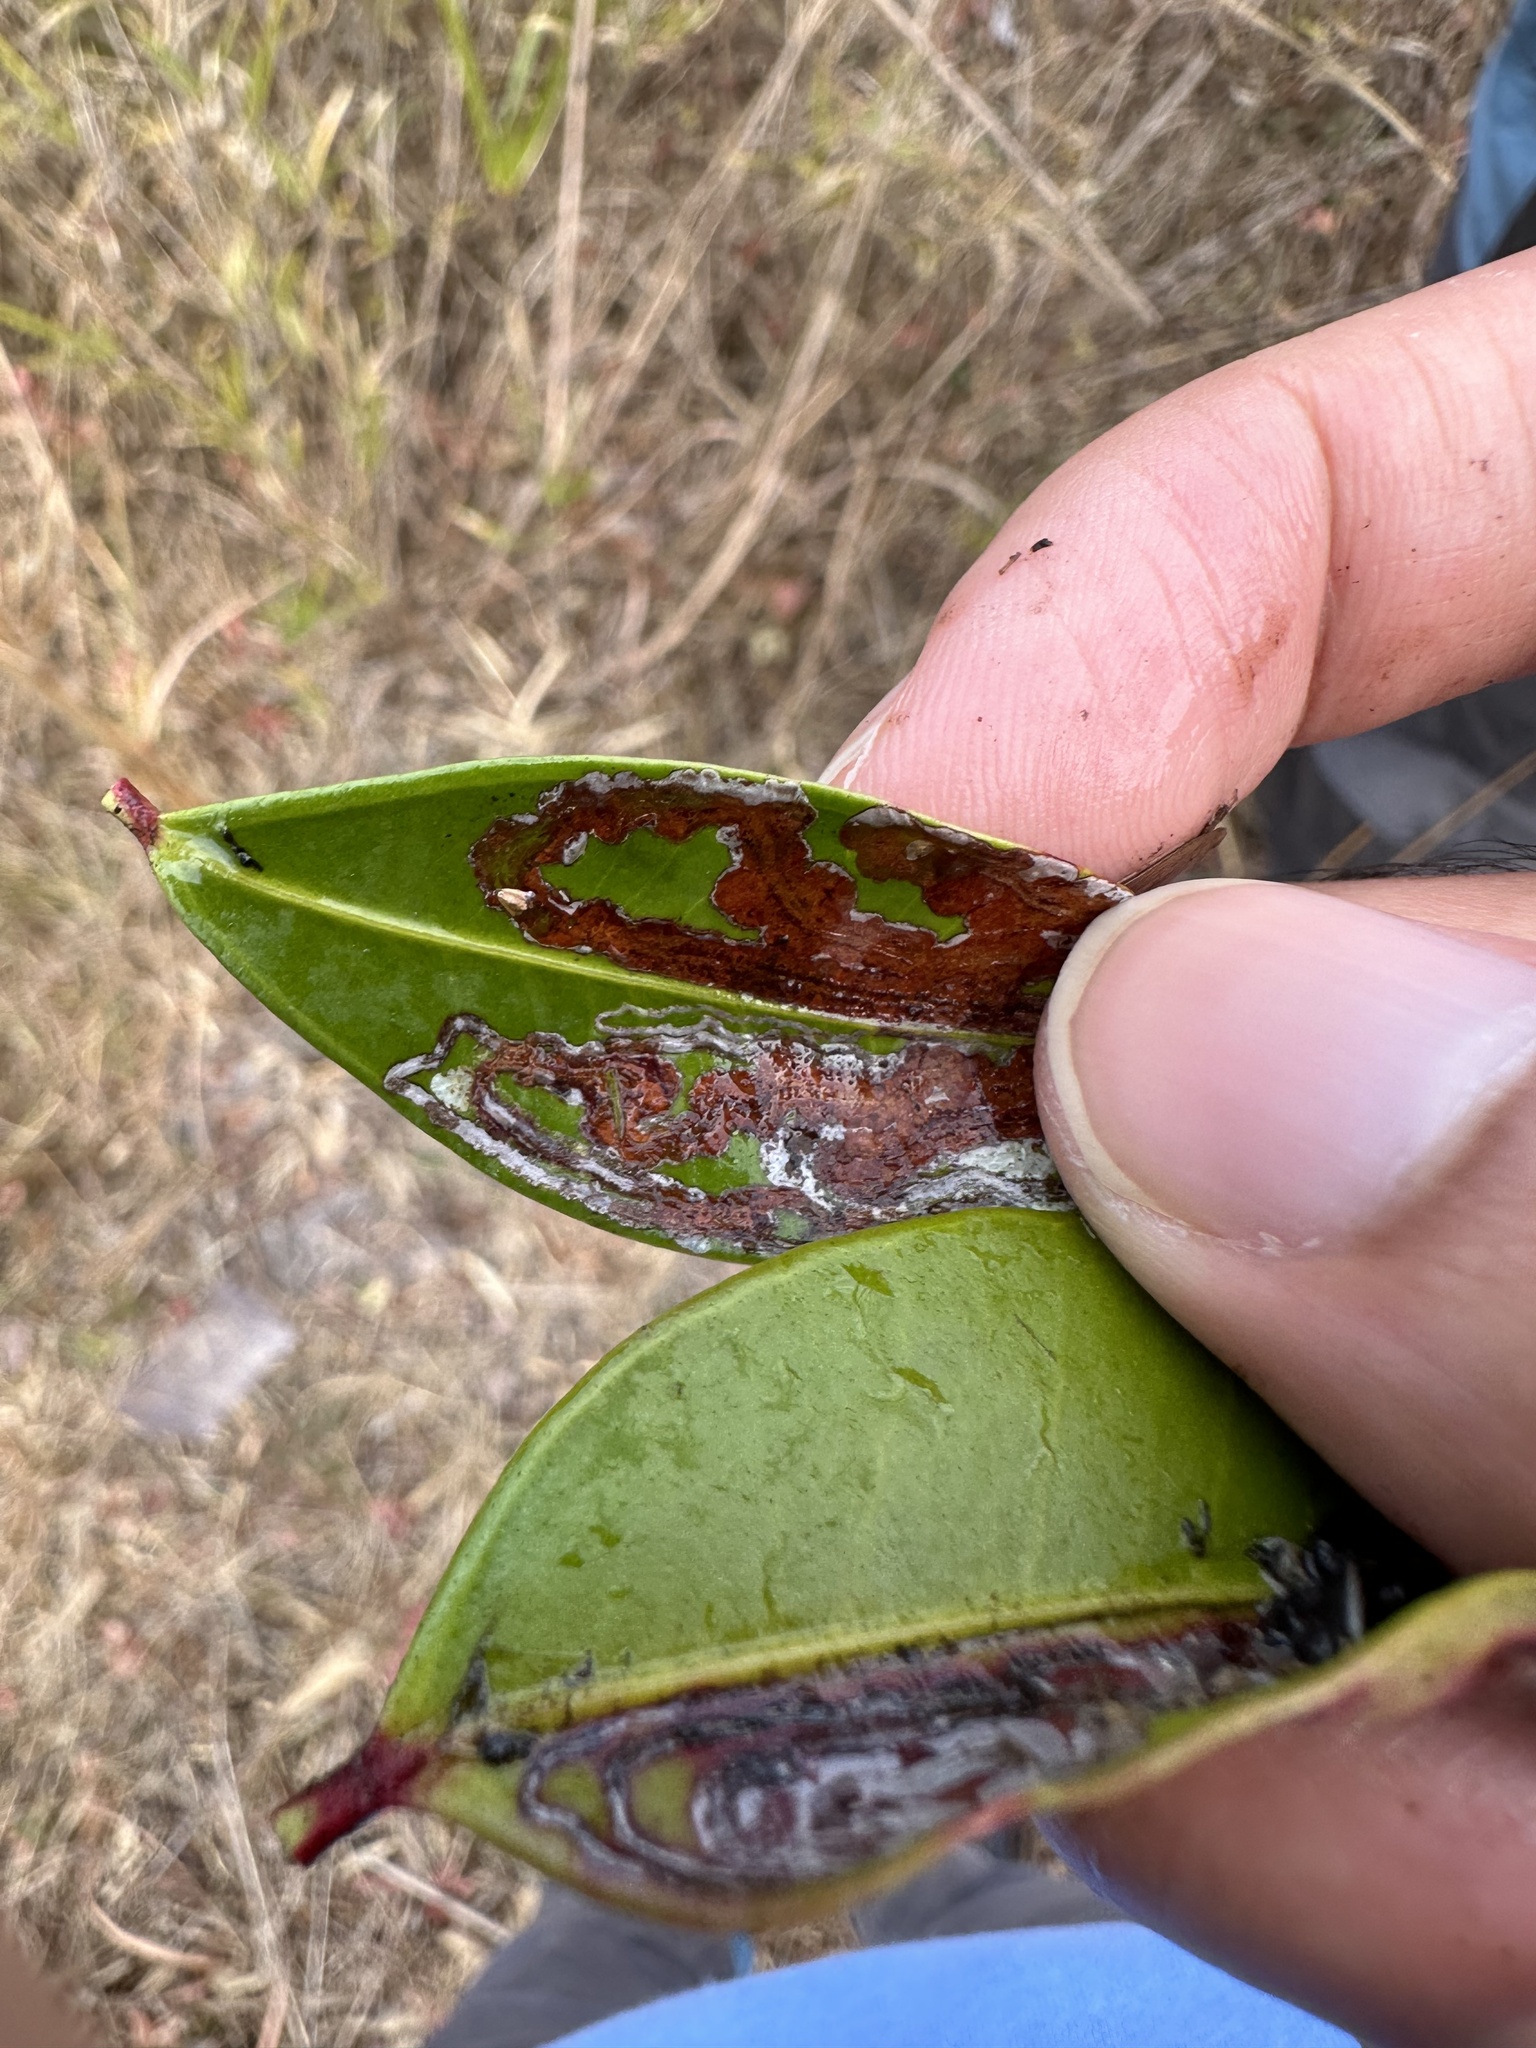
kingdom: Animalia
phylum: Arthropoda
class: Insecta
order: Lepidoptera
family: Gracillariidae
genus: Phyllocnistis
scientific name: Phyllocnistis
